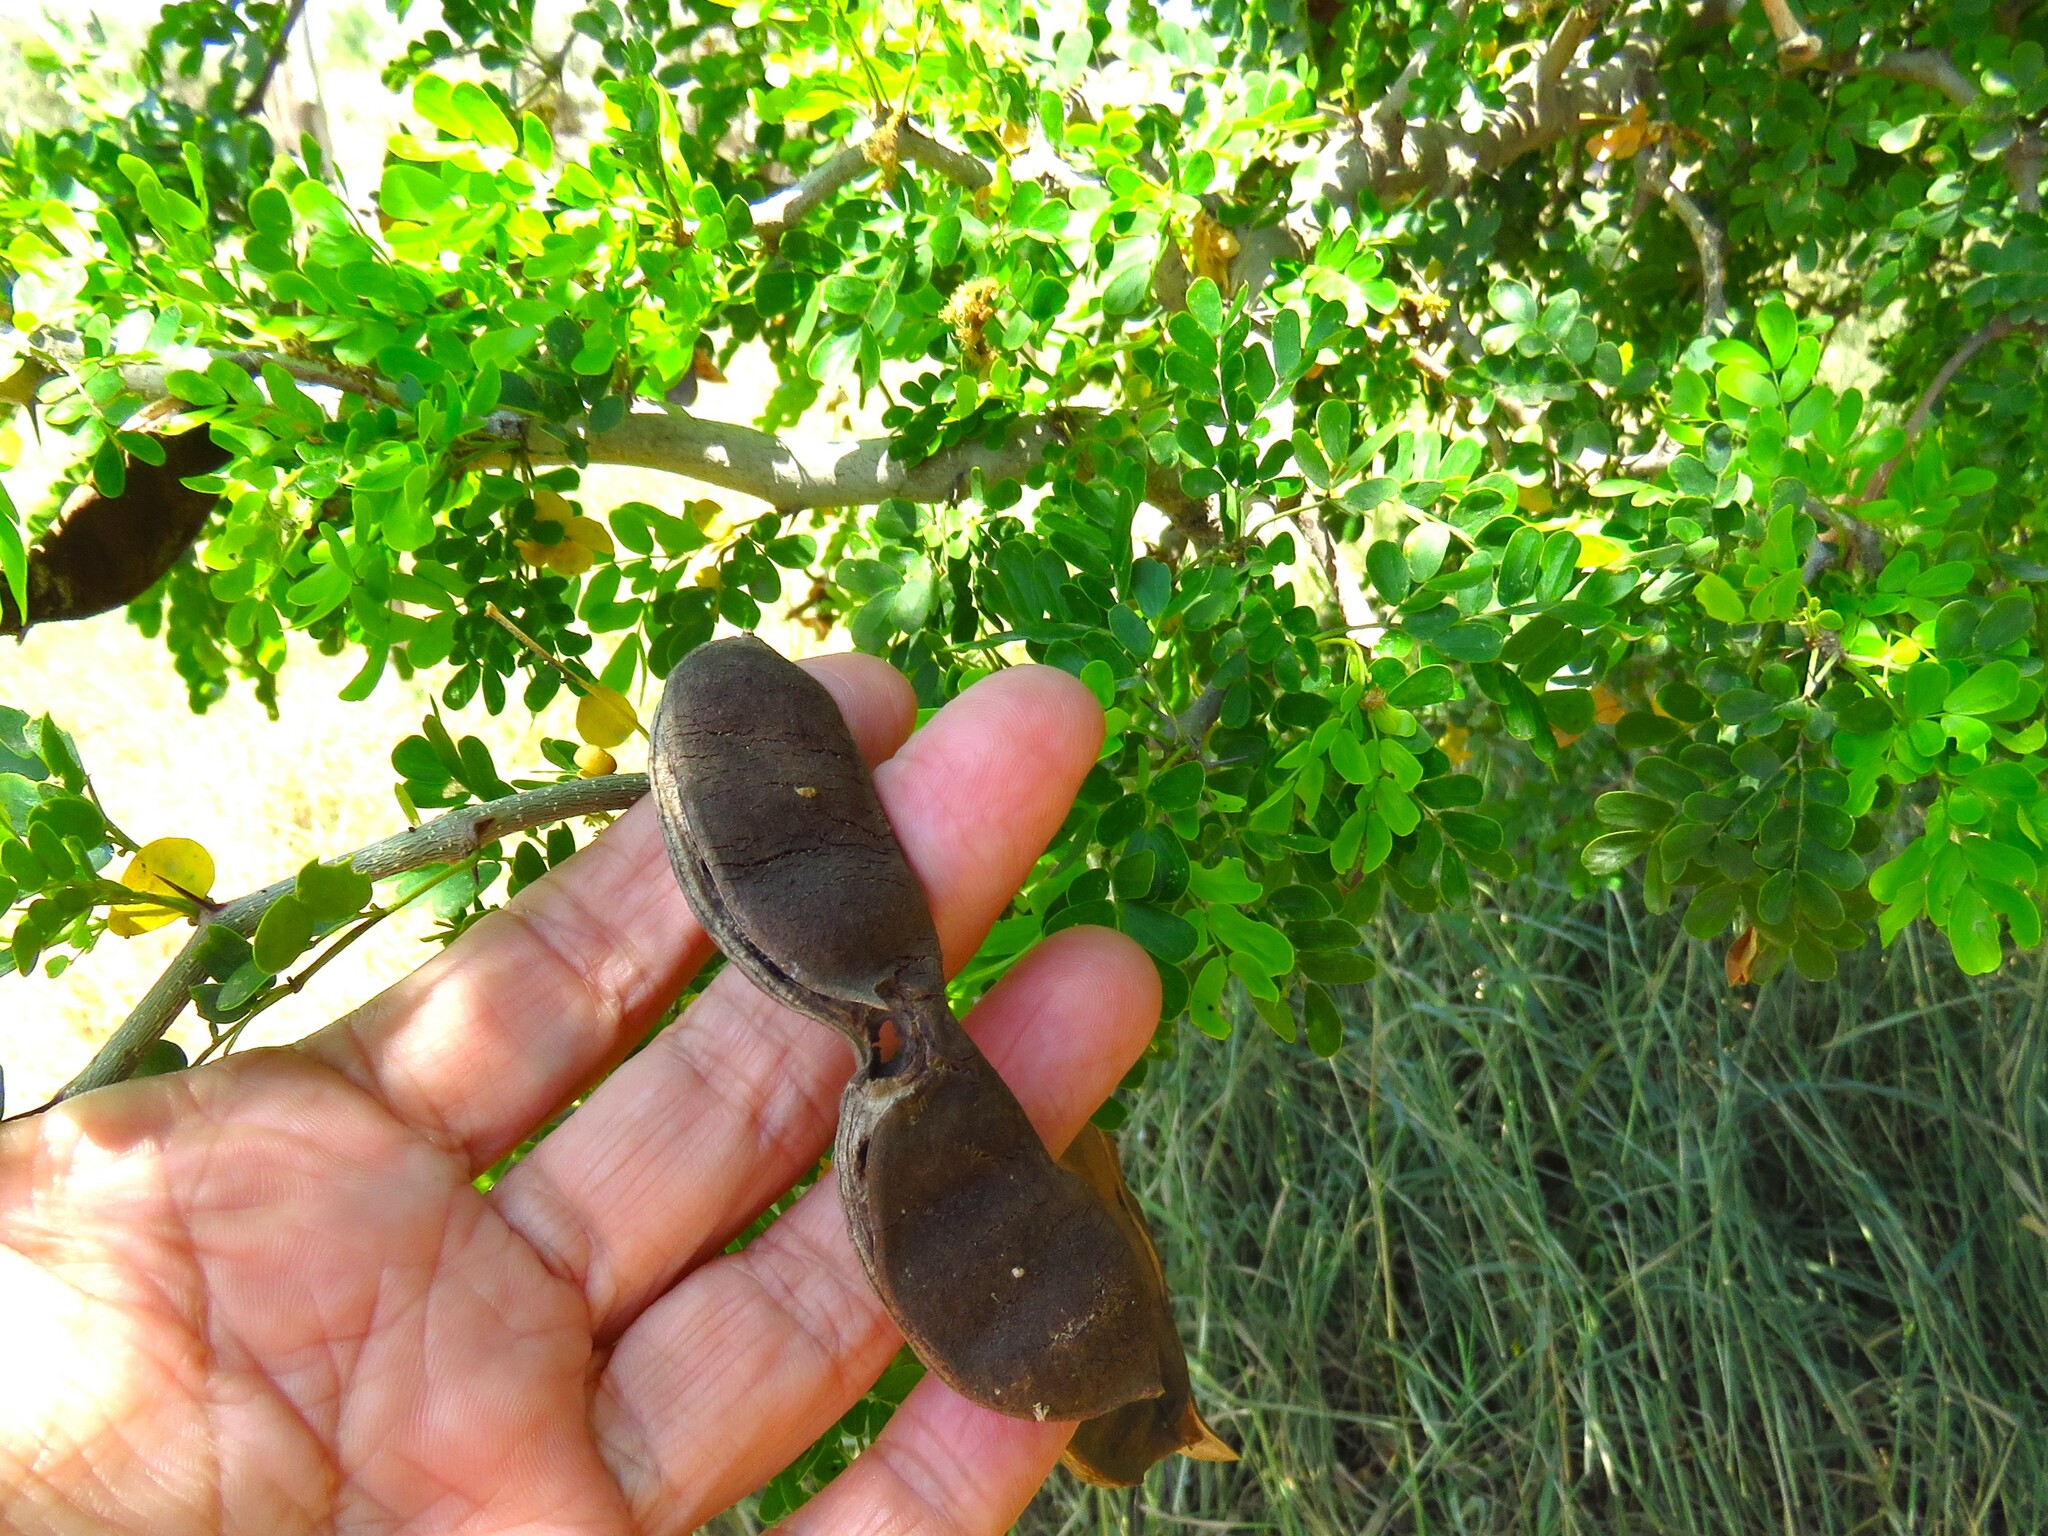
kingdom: Plantae
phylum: Tracheophyta
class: Magnoliopsida
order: Fabales
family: Fabaceae
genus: Ebenopsis
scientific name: Ebenopsis ebano
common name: Ebony blackbead
